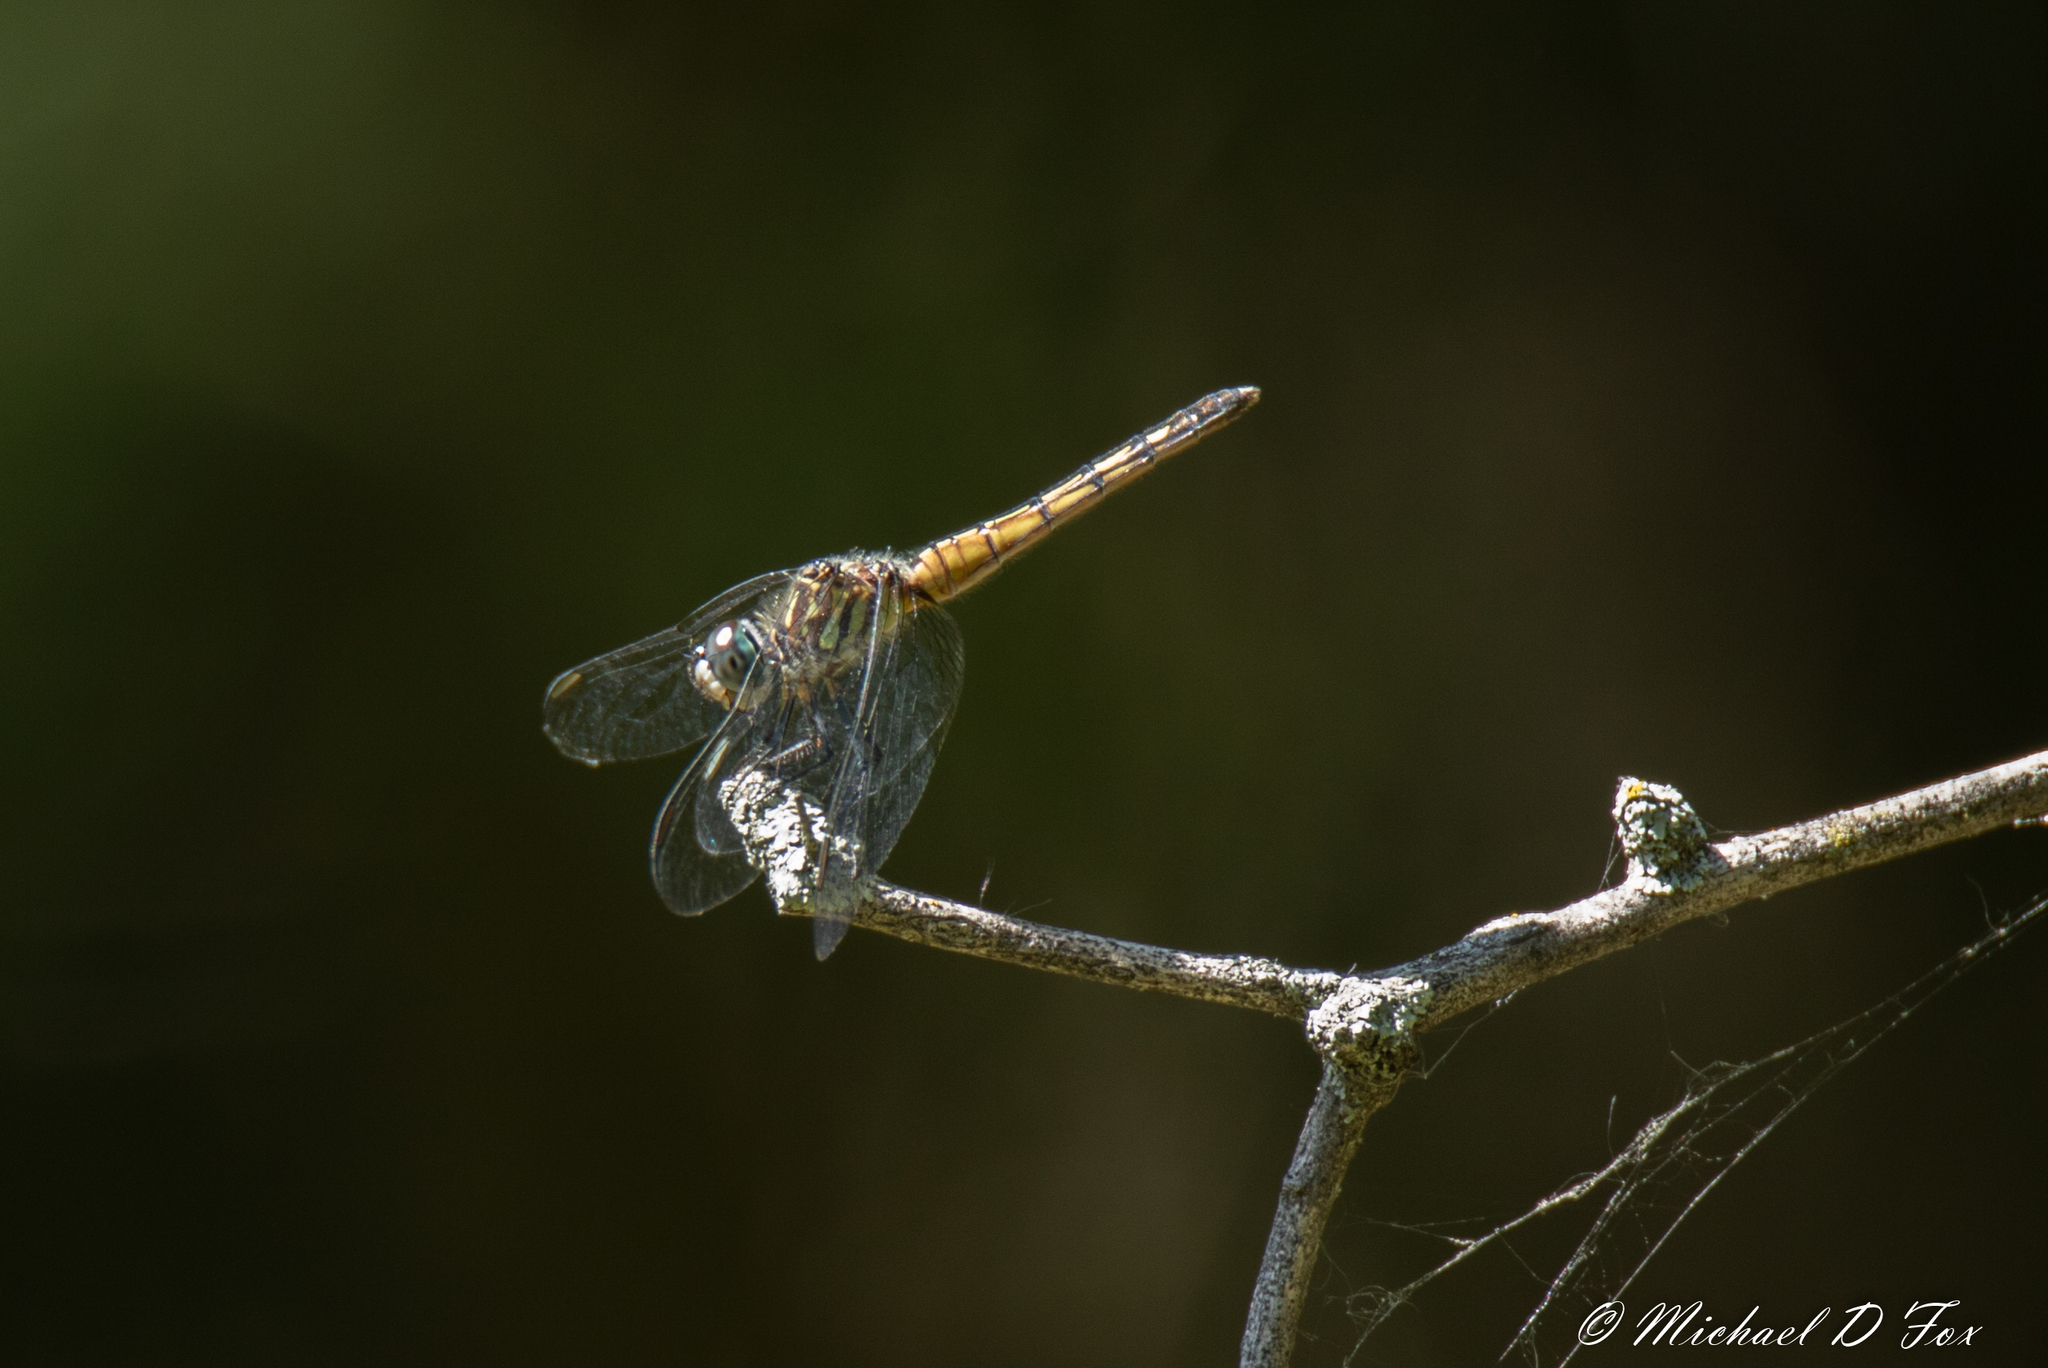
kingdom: Animalia
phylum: Arthropoda
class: Insecta
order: Odonata
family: Libellulidae
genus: Pachydiplax
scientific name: Pachydiplax longipennis
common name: Blue dasher
